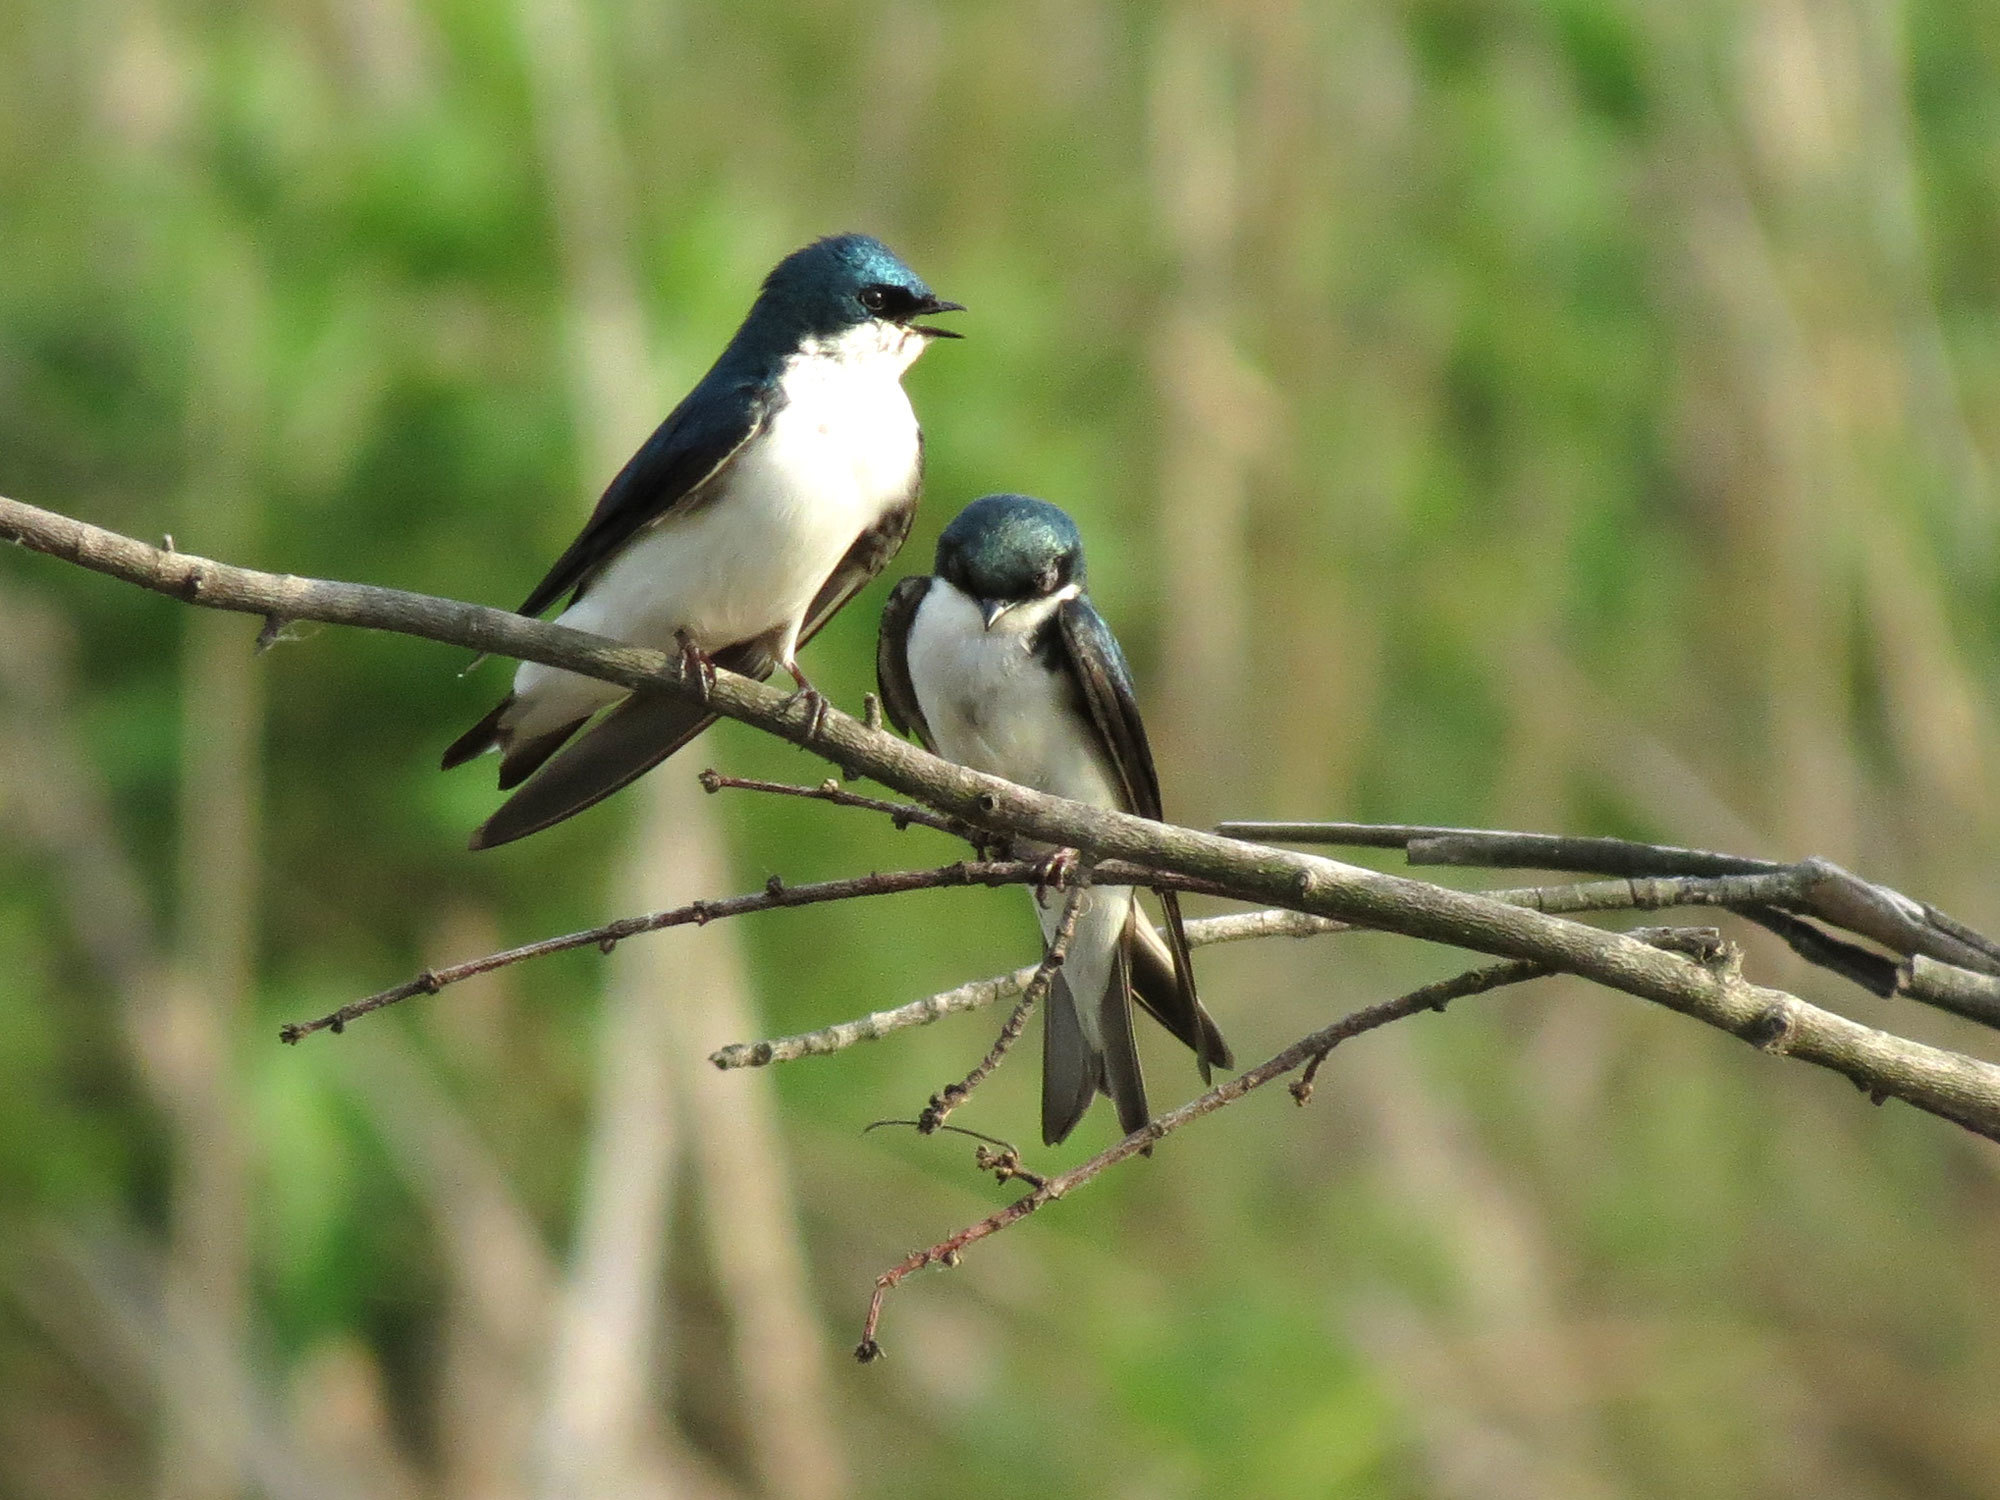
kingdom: Animalia
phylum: Chordata
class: Aves
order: Passeriformes
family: Hirundinidae
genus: Tachycineta
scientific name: Tachycineta bicolor
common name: Tree swallow
